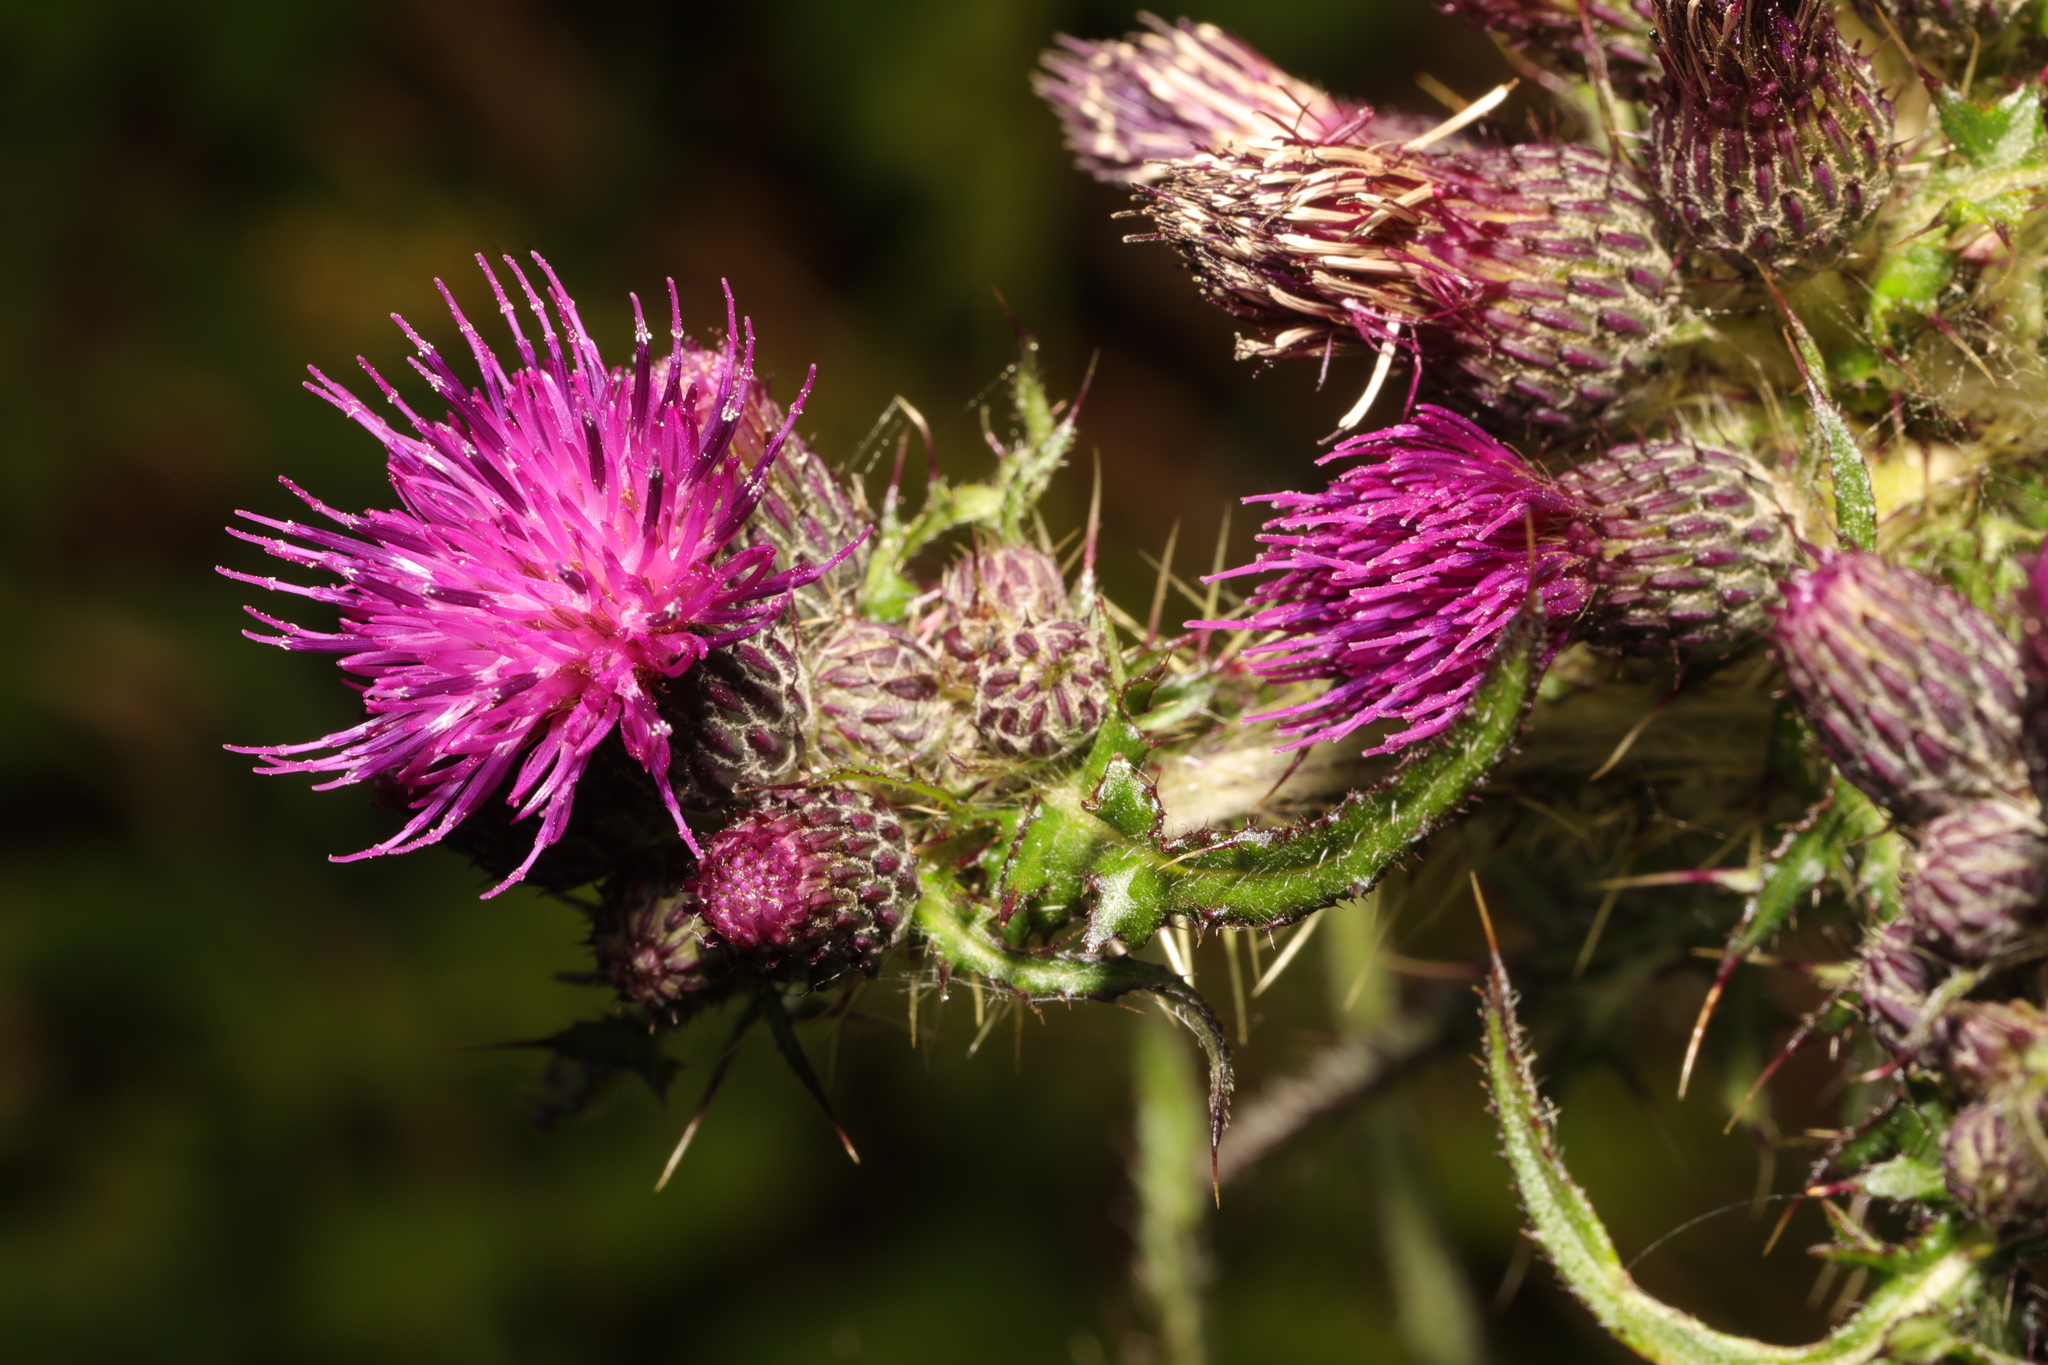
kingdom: Plantae
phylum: Tracheophyta
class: Magnoliopsida
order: Asterales
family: Asteraceae
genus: Cirsium
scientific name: Cirsium palustre
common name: Marsh thistle
